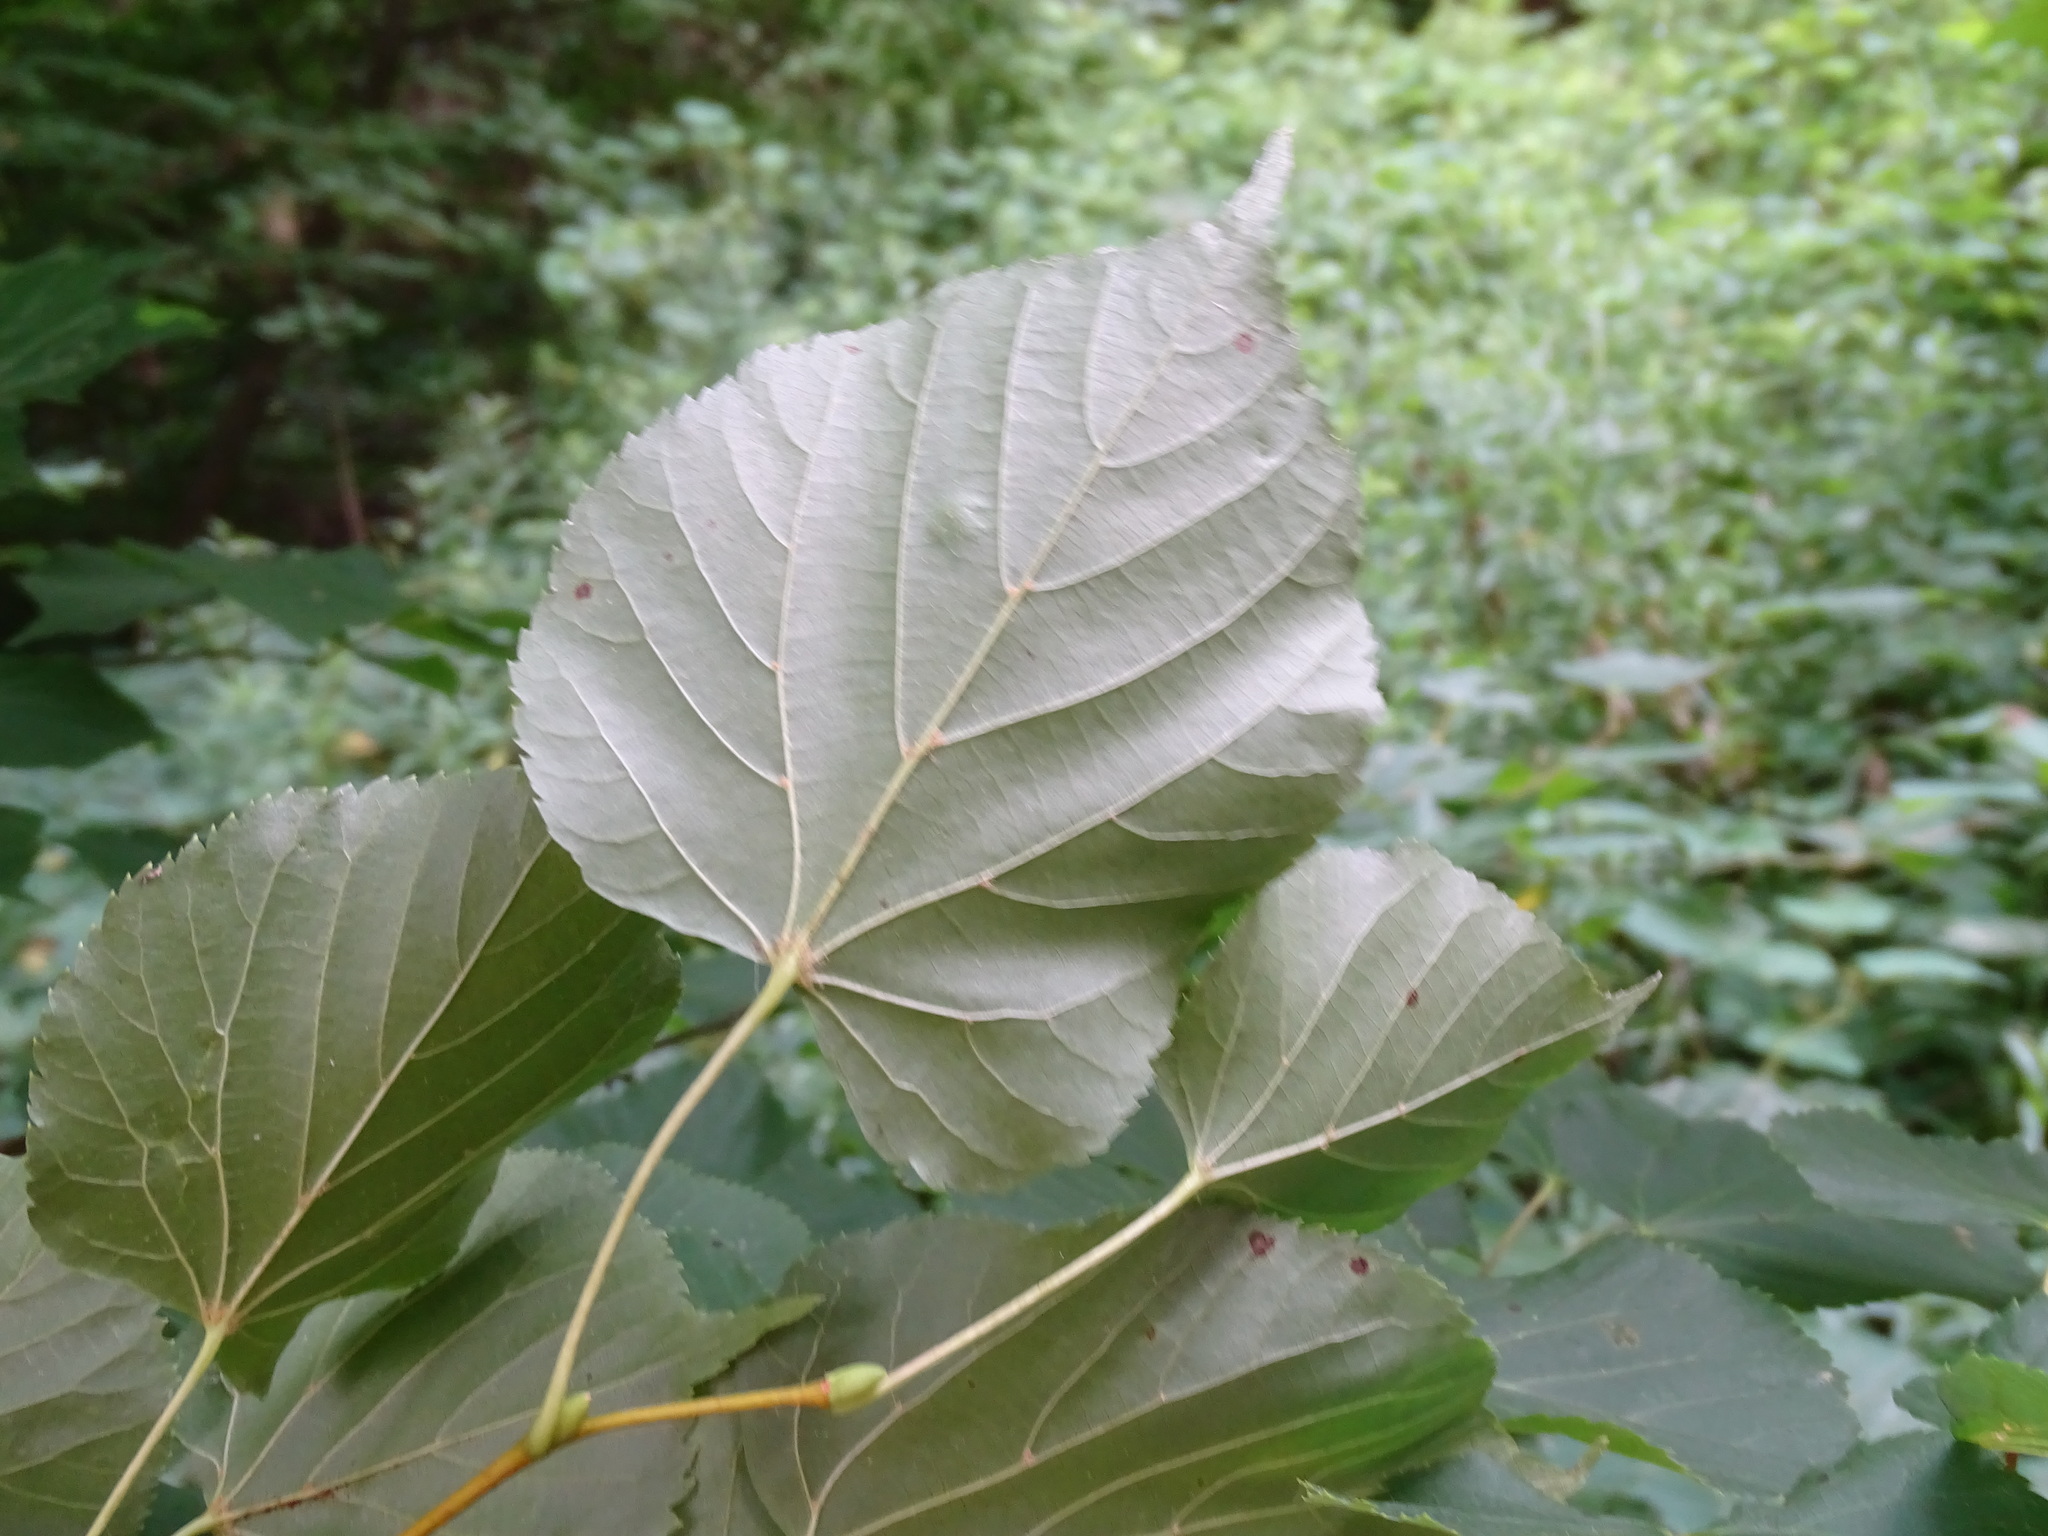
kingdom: Plantae
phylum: Tracheophyta
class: Magnoliopsida
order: Malvales
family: Malvaceae
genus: Tilia
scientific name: Tilia cordata
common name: Small-leaved lime
